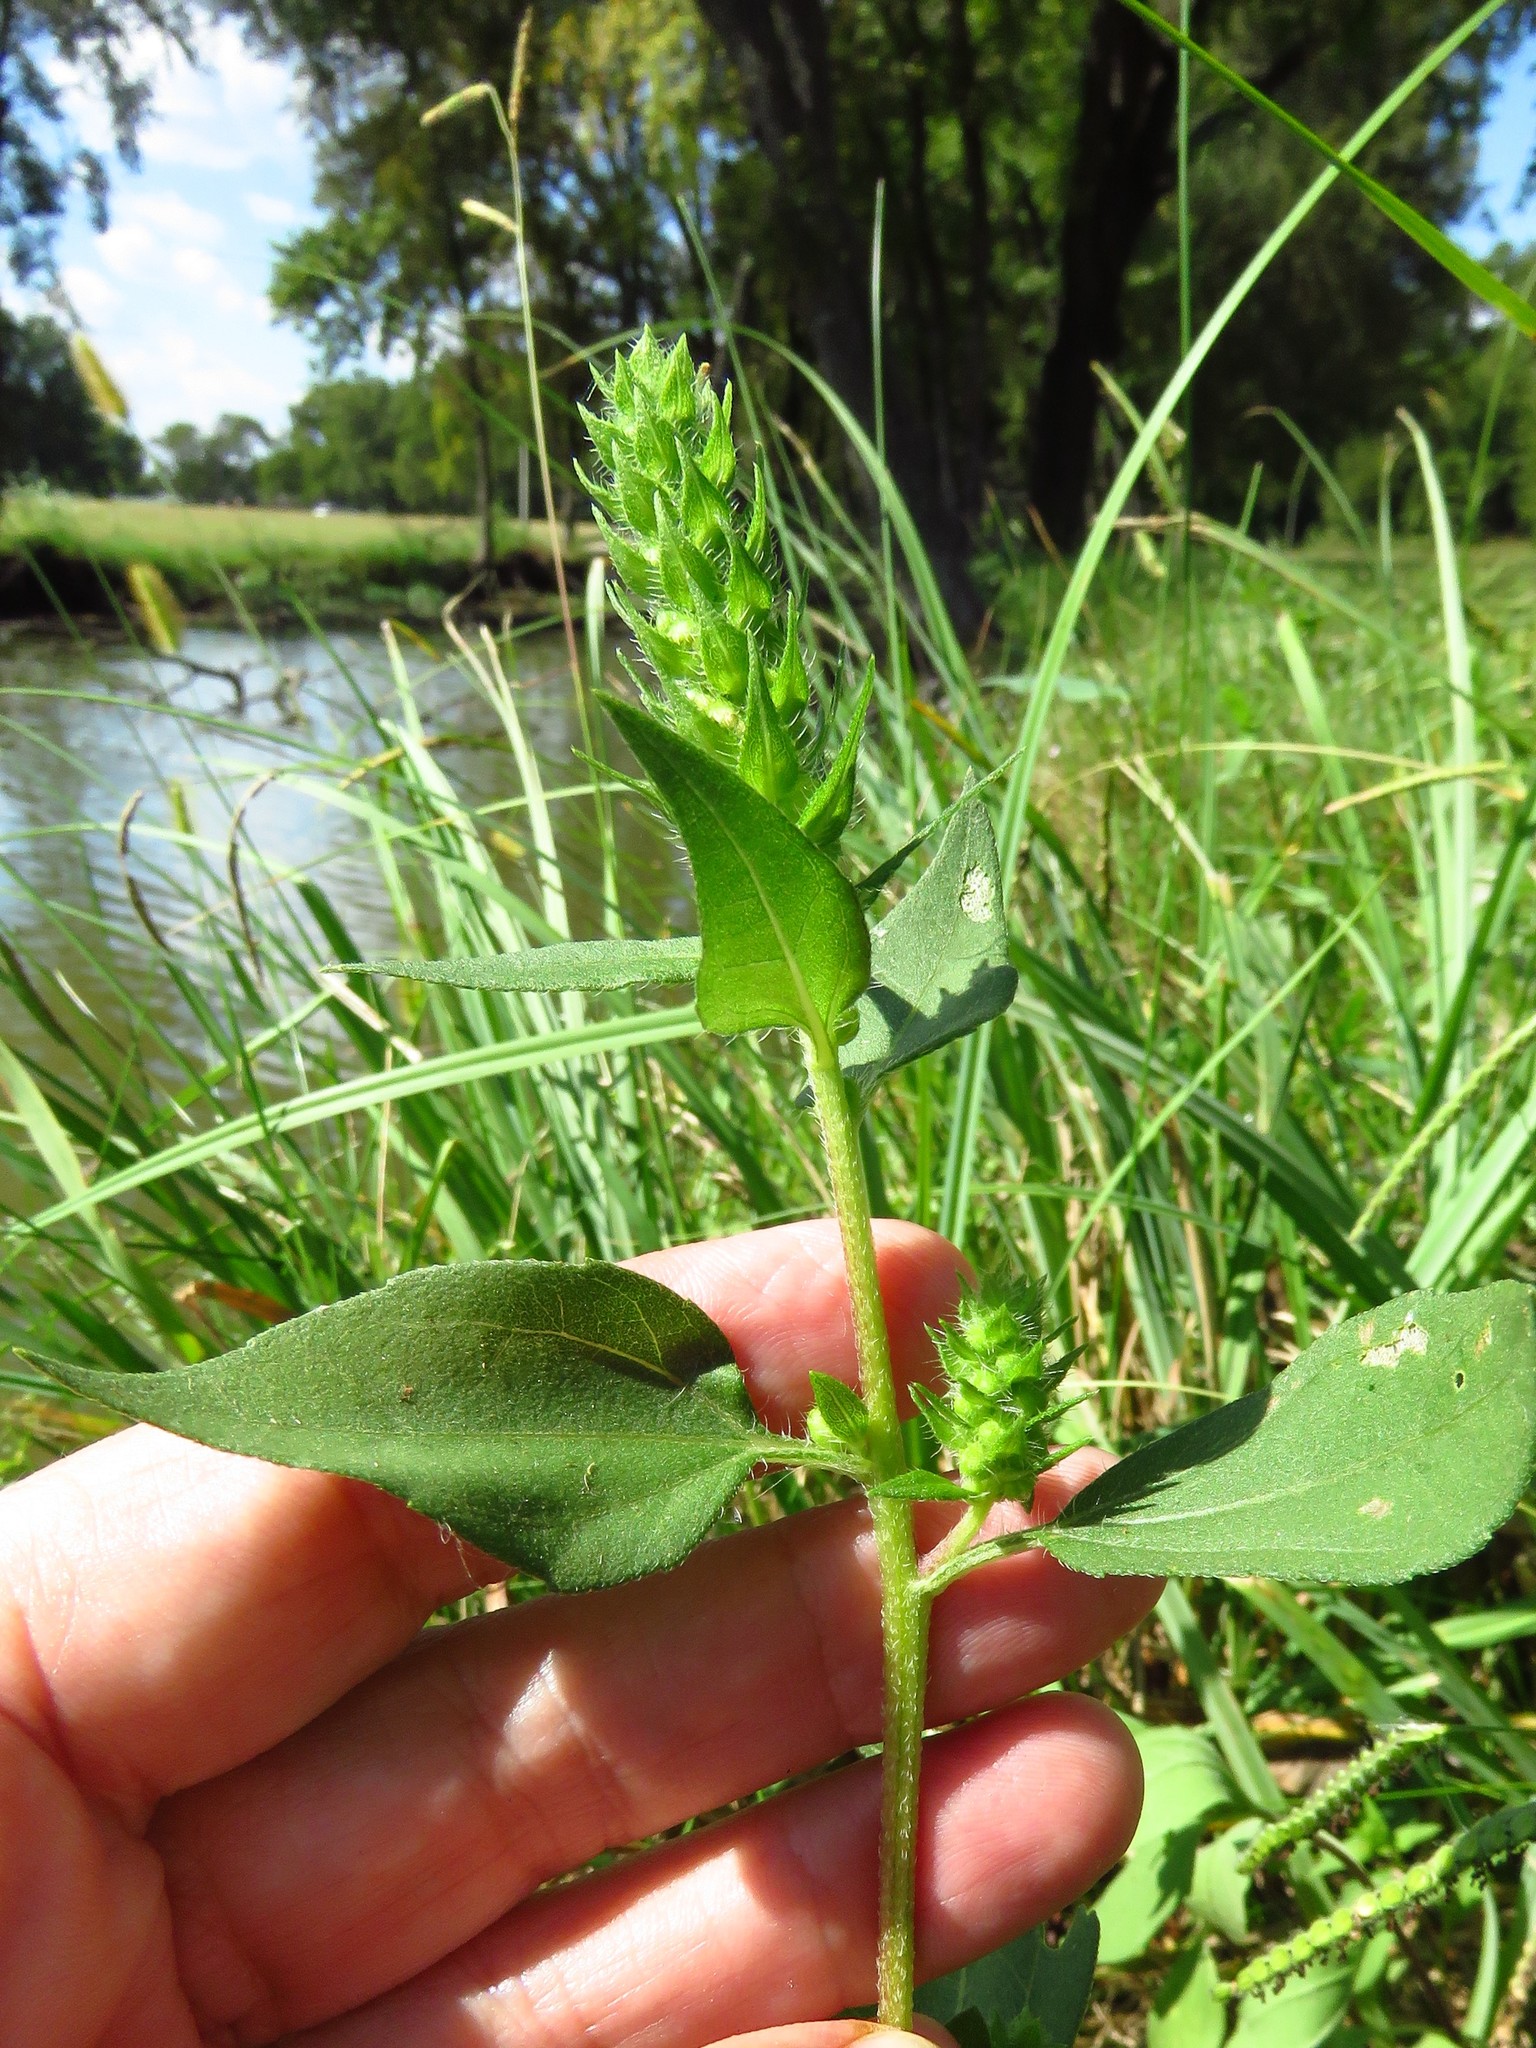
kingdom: Plantae
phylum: Tracheophyta
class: Magnoliopsida
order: Asterales
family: Asteraceae
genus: Iva
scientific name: Iva annua
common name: Marsh-elder
